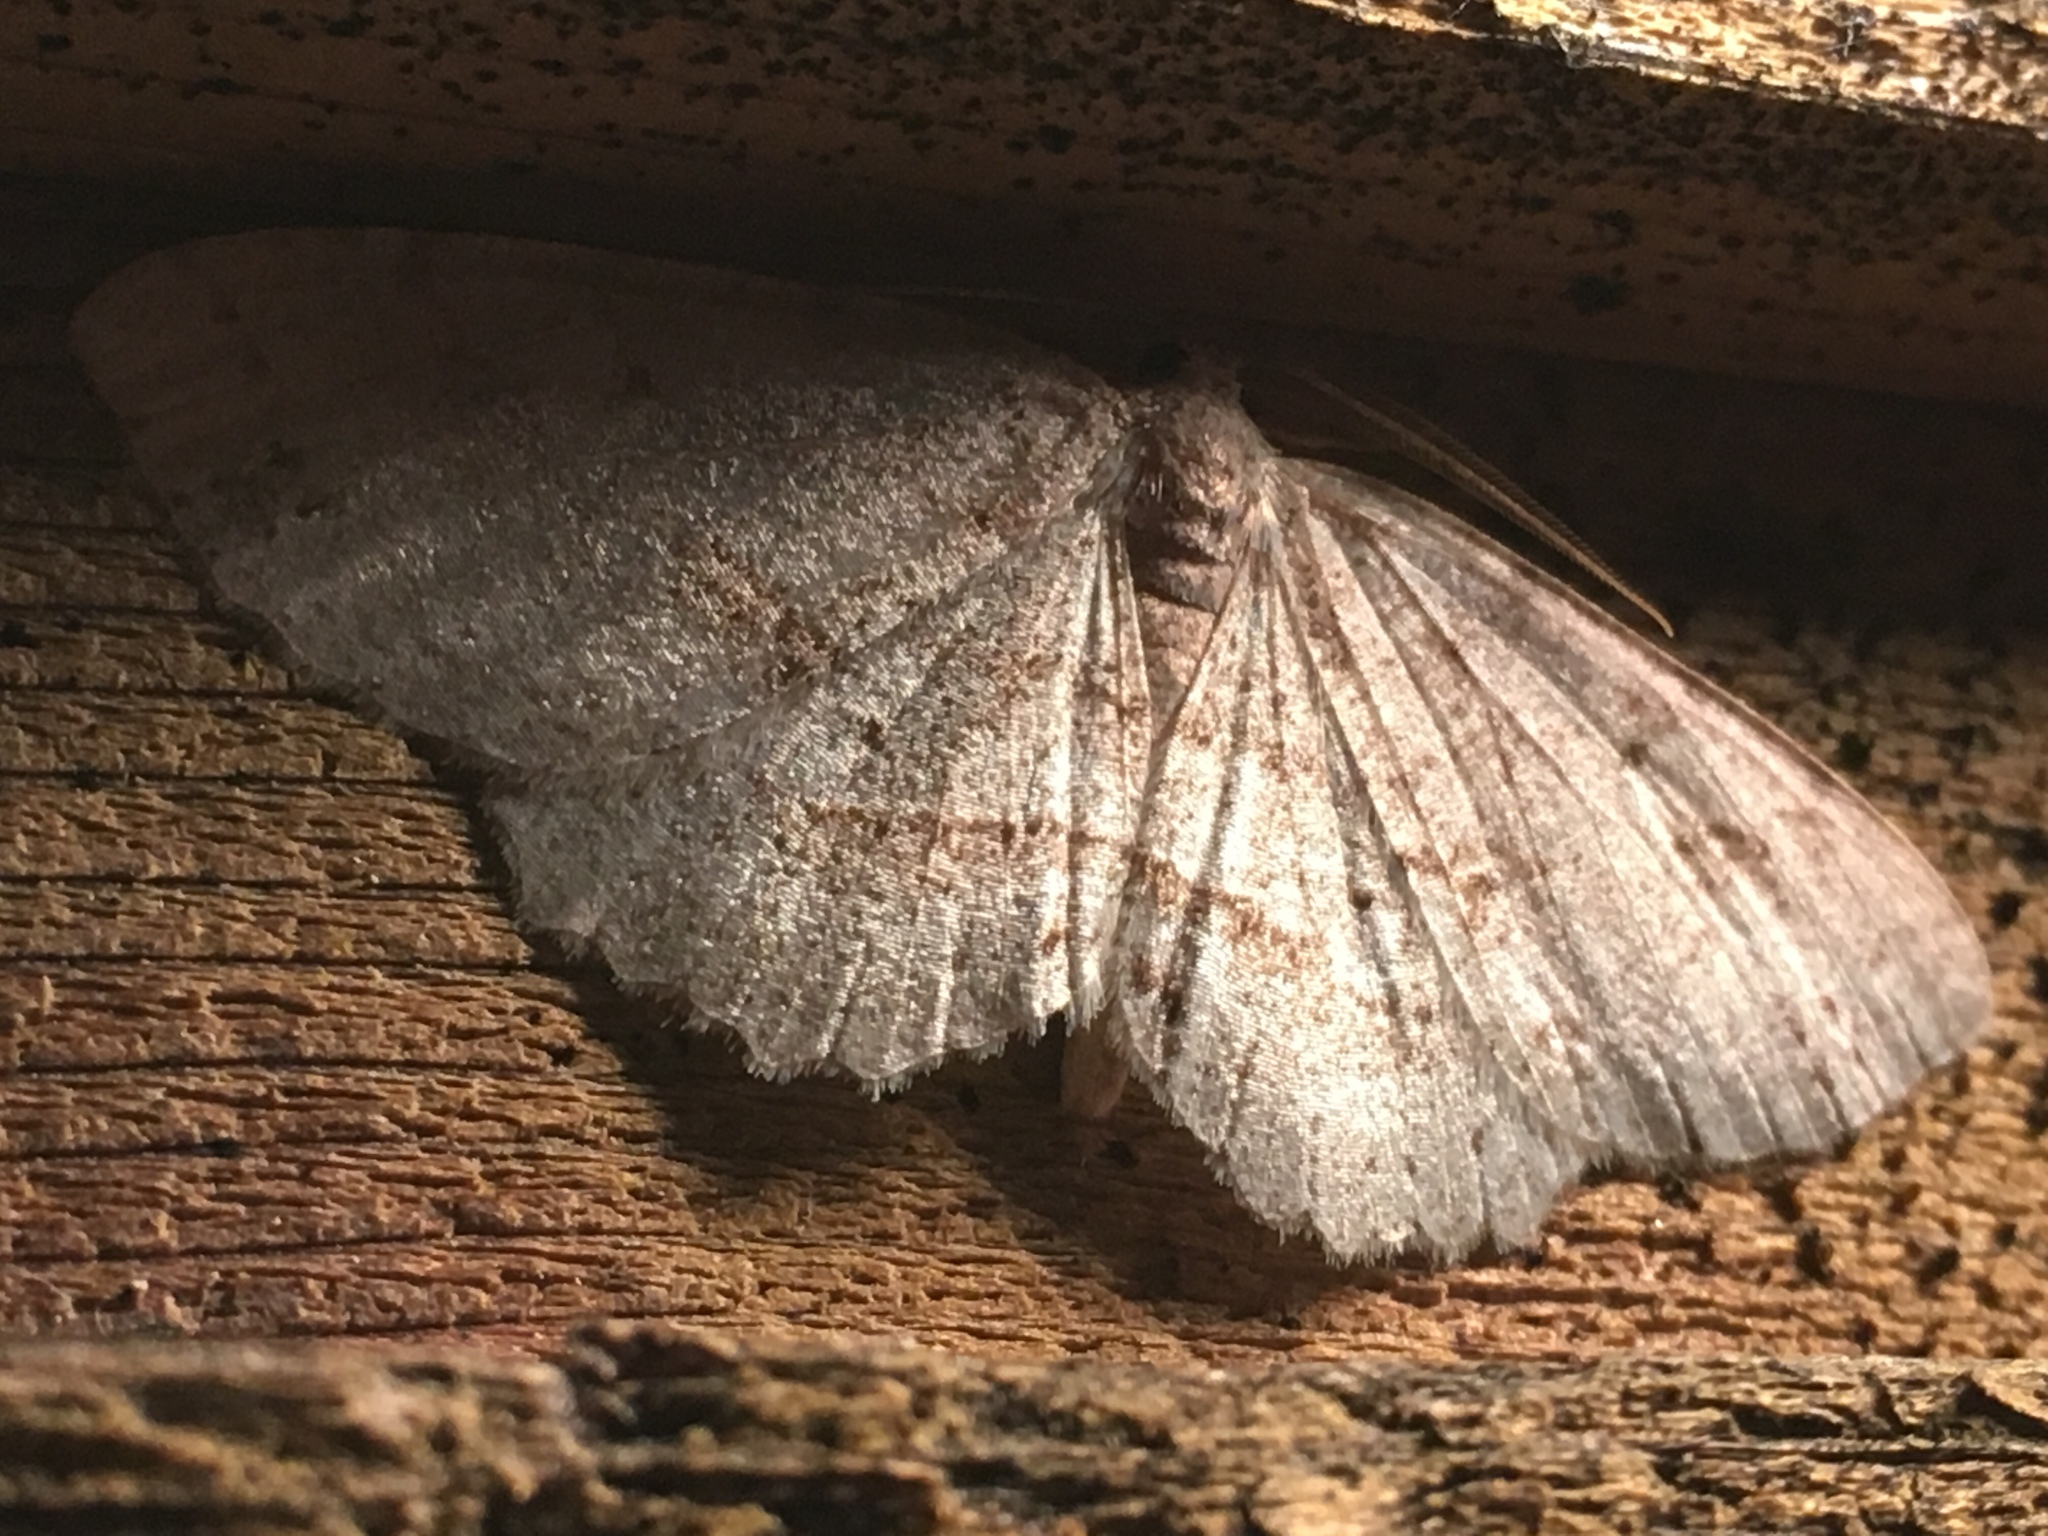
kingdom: Animalia
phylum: Arthropoda
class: Insecta
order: Lepidoptera
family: Geometridae
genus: Melanolophia
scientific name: Melanolophia signataria
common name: Signate melanolophia
